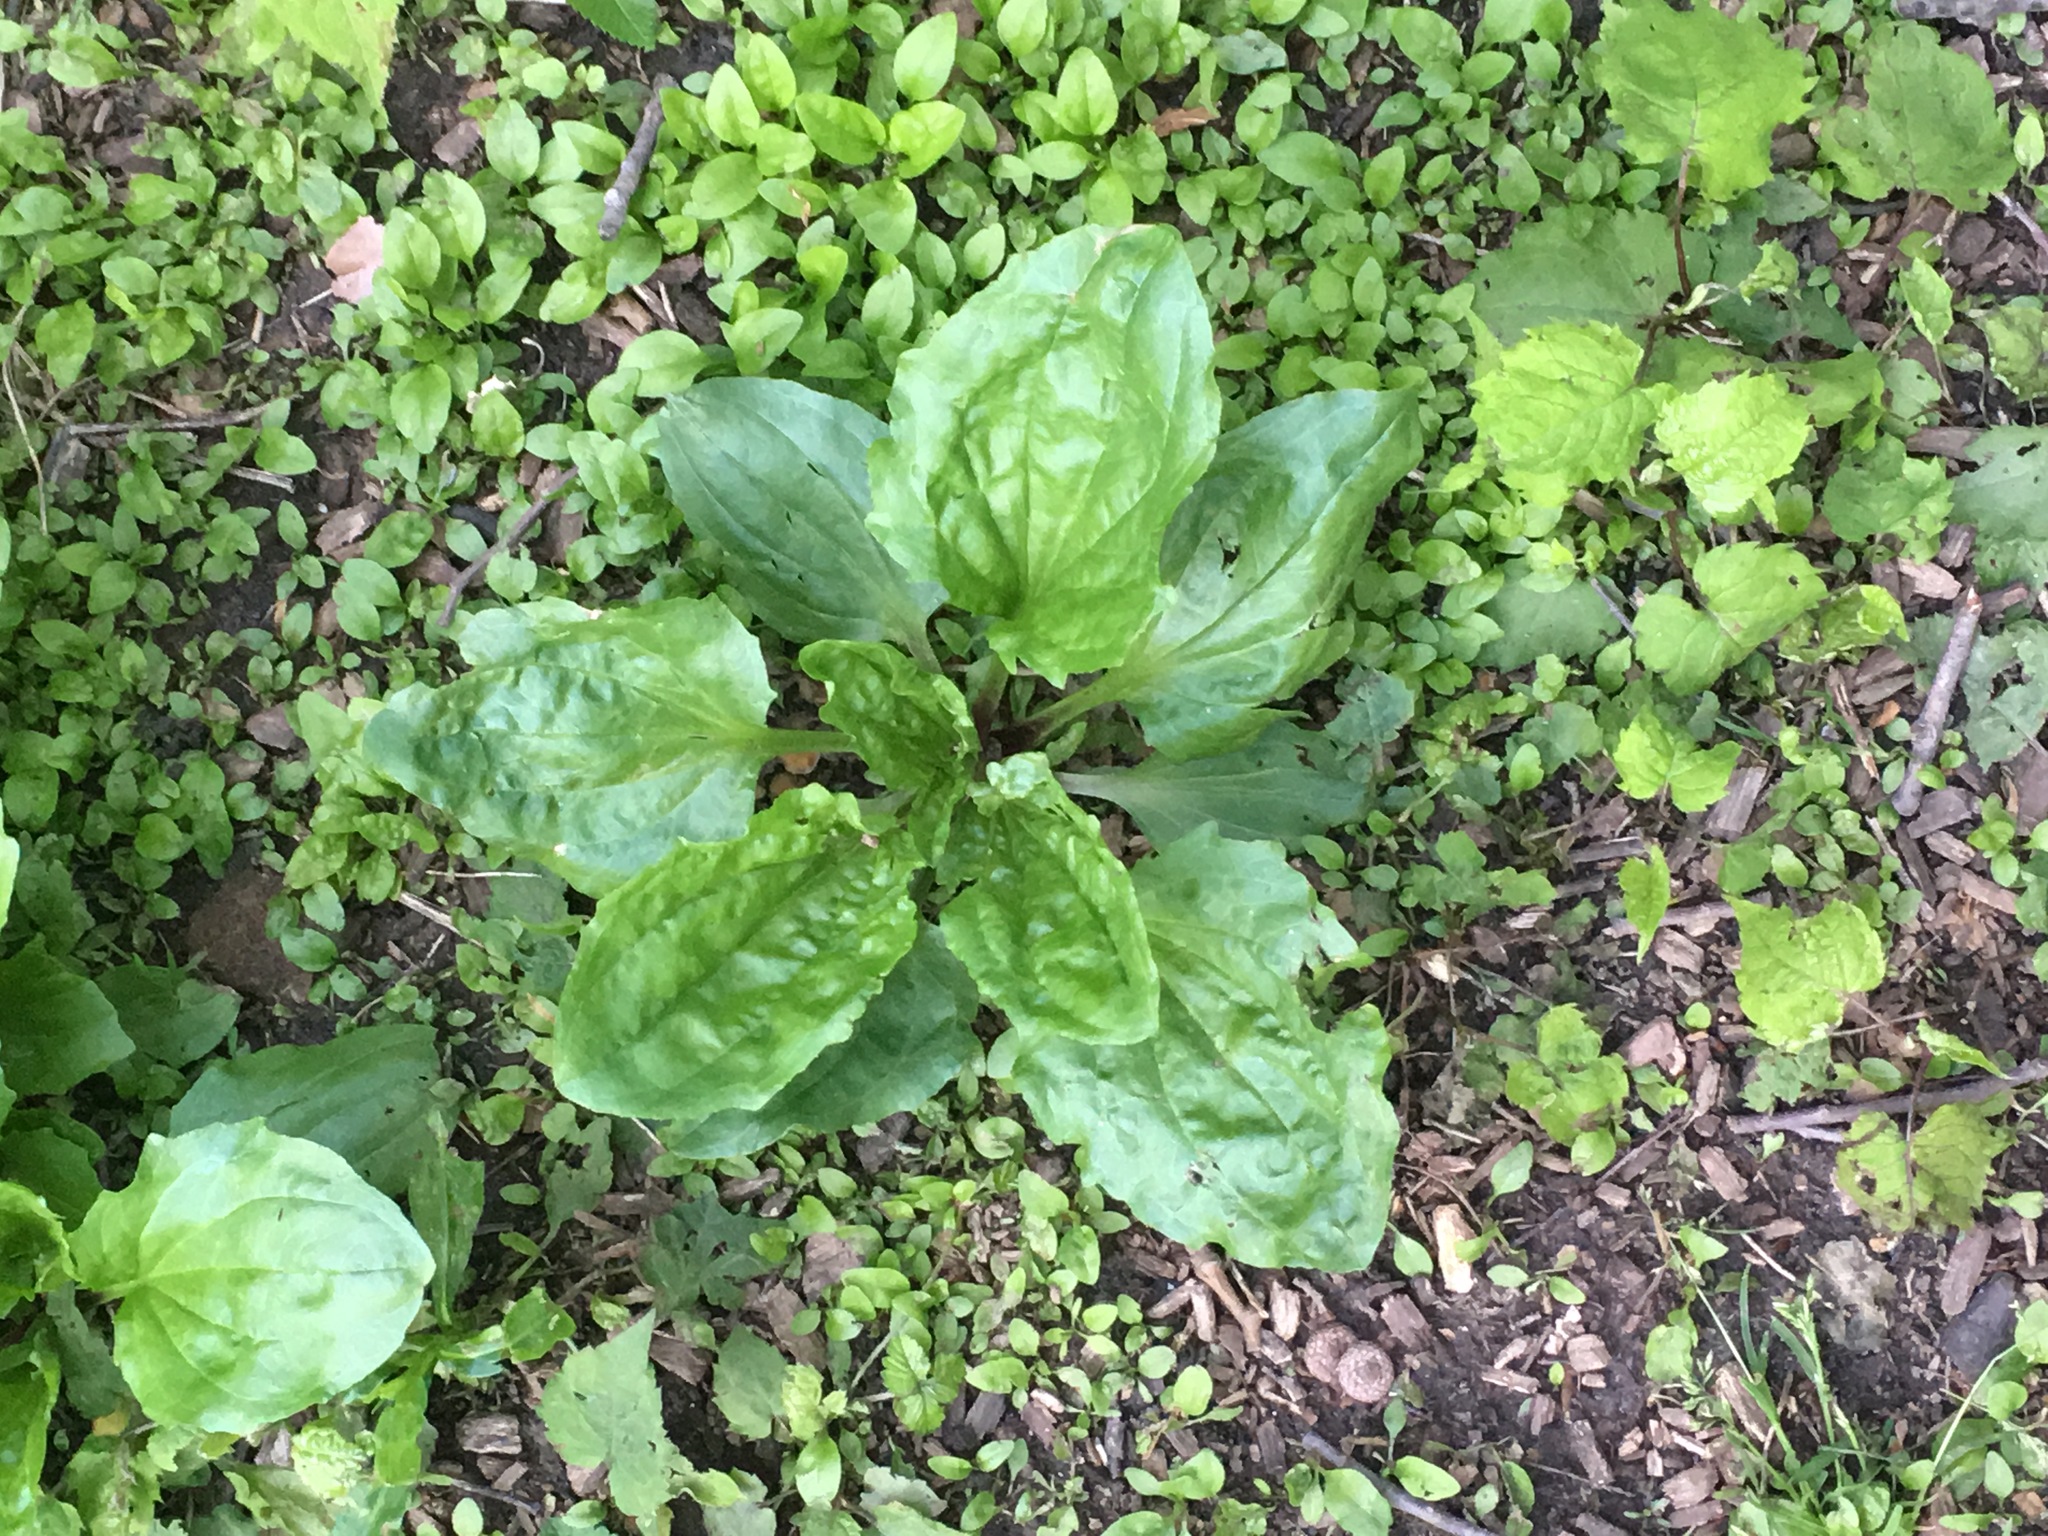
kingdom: Plantae
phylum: Tracheophyta
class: Magnoliopsida
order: Lamiales
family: Plantaginaceae
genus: Plantago
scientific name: Plantago rugelii
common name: American plantain
